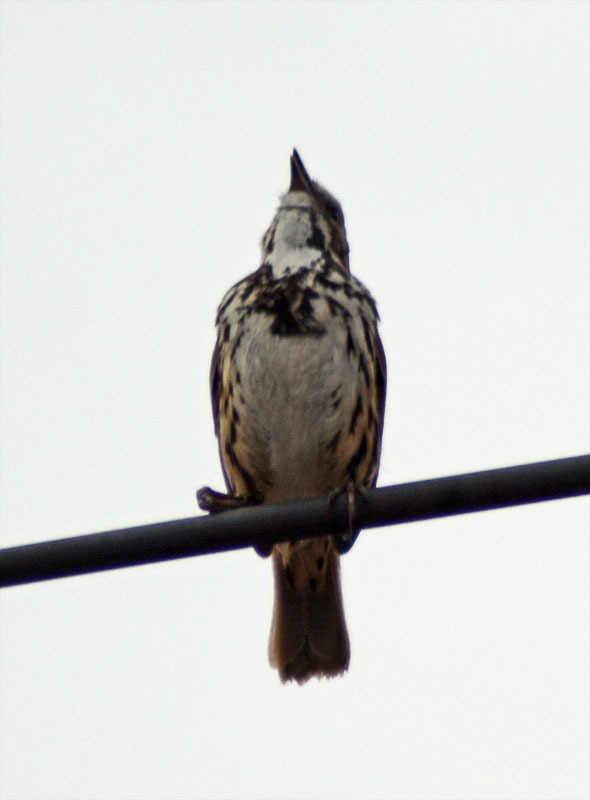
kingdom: Animalia
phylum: Chordata
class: Aves
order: Passeriformes
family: Passerellidae
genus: Melospiza
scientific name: Melospiza melodia
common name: Song sparrow
